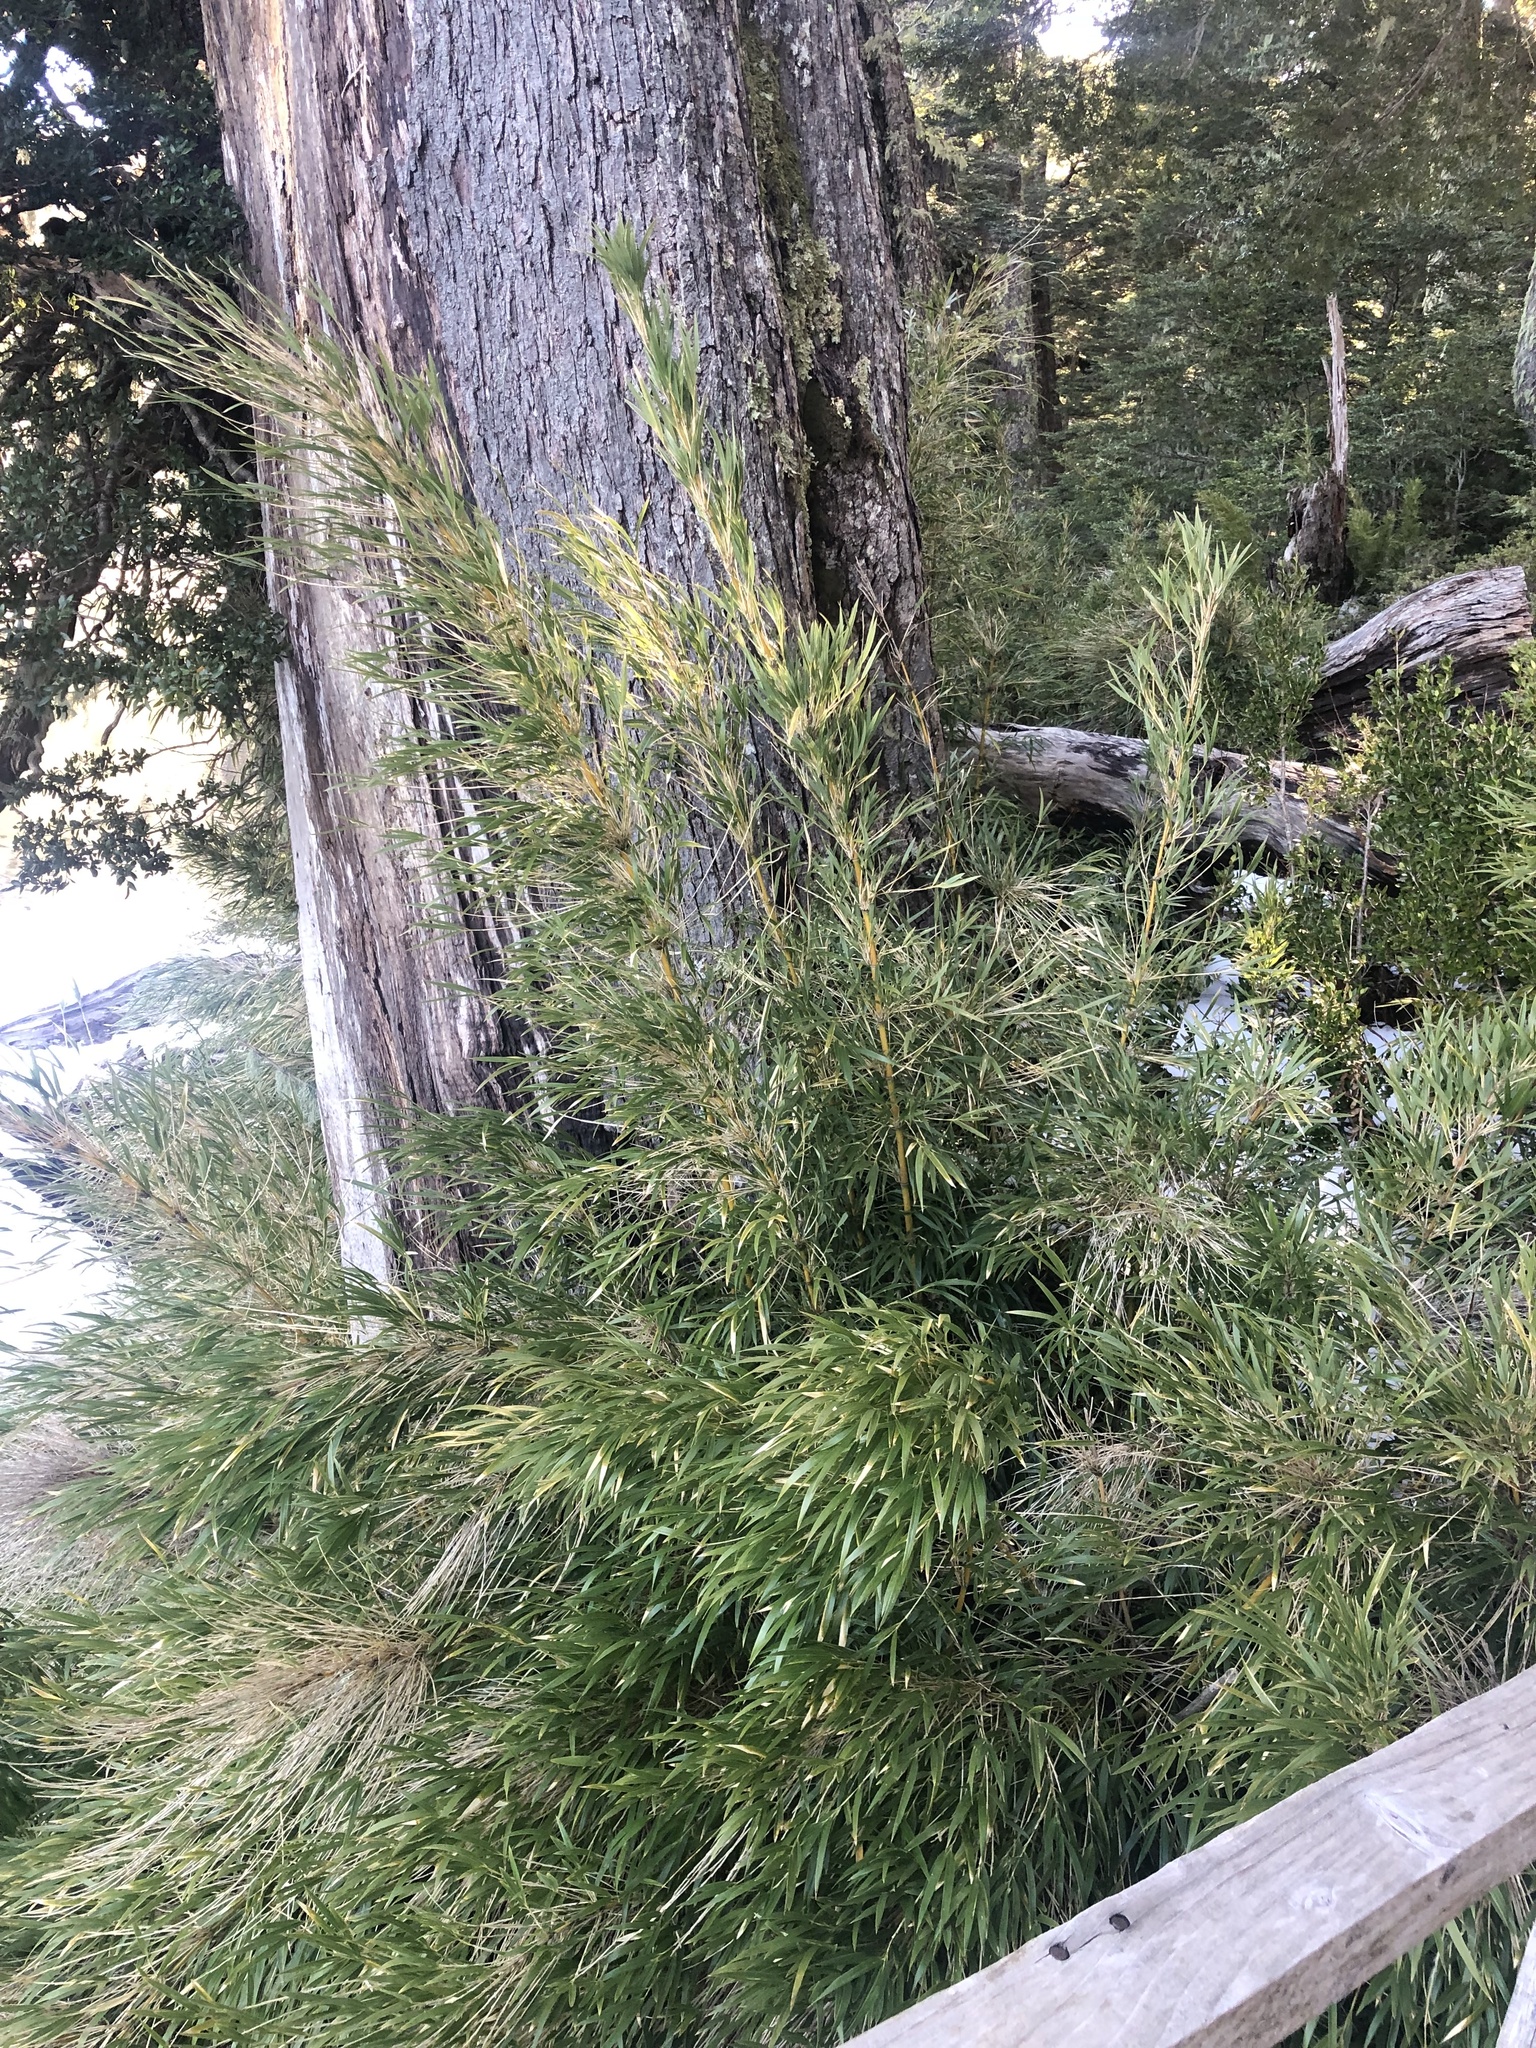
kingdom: Plantae
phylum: Tracheophyta
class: Liliopsida
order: Poales
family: Poaceae
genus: Chusquea
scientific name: Chusquea culeou
